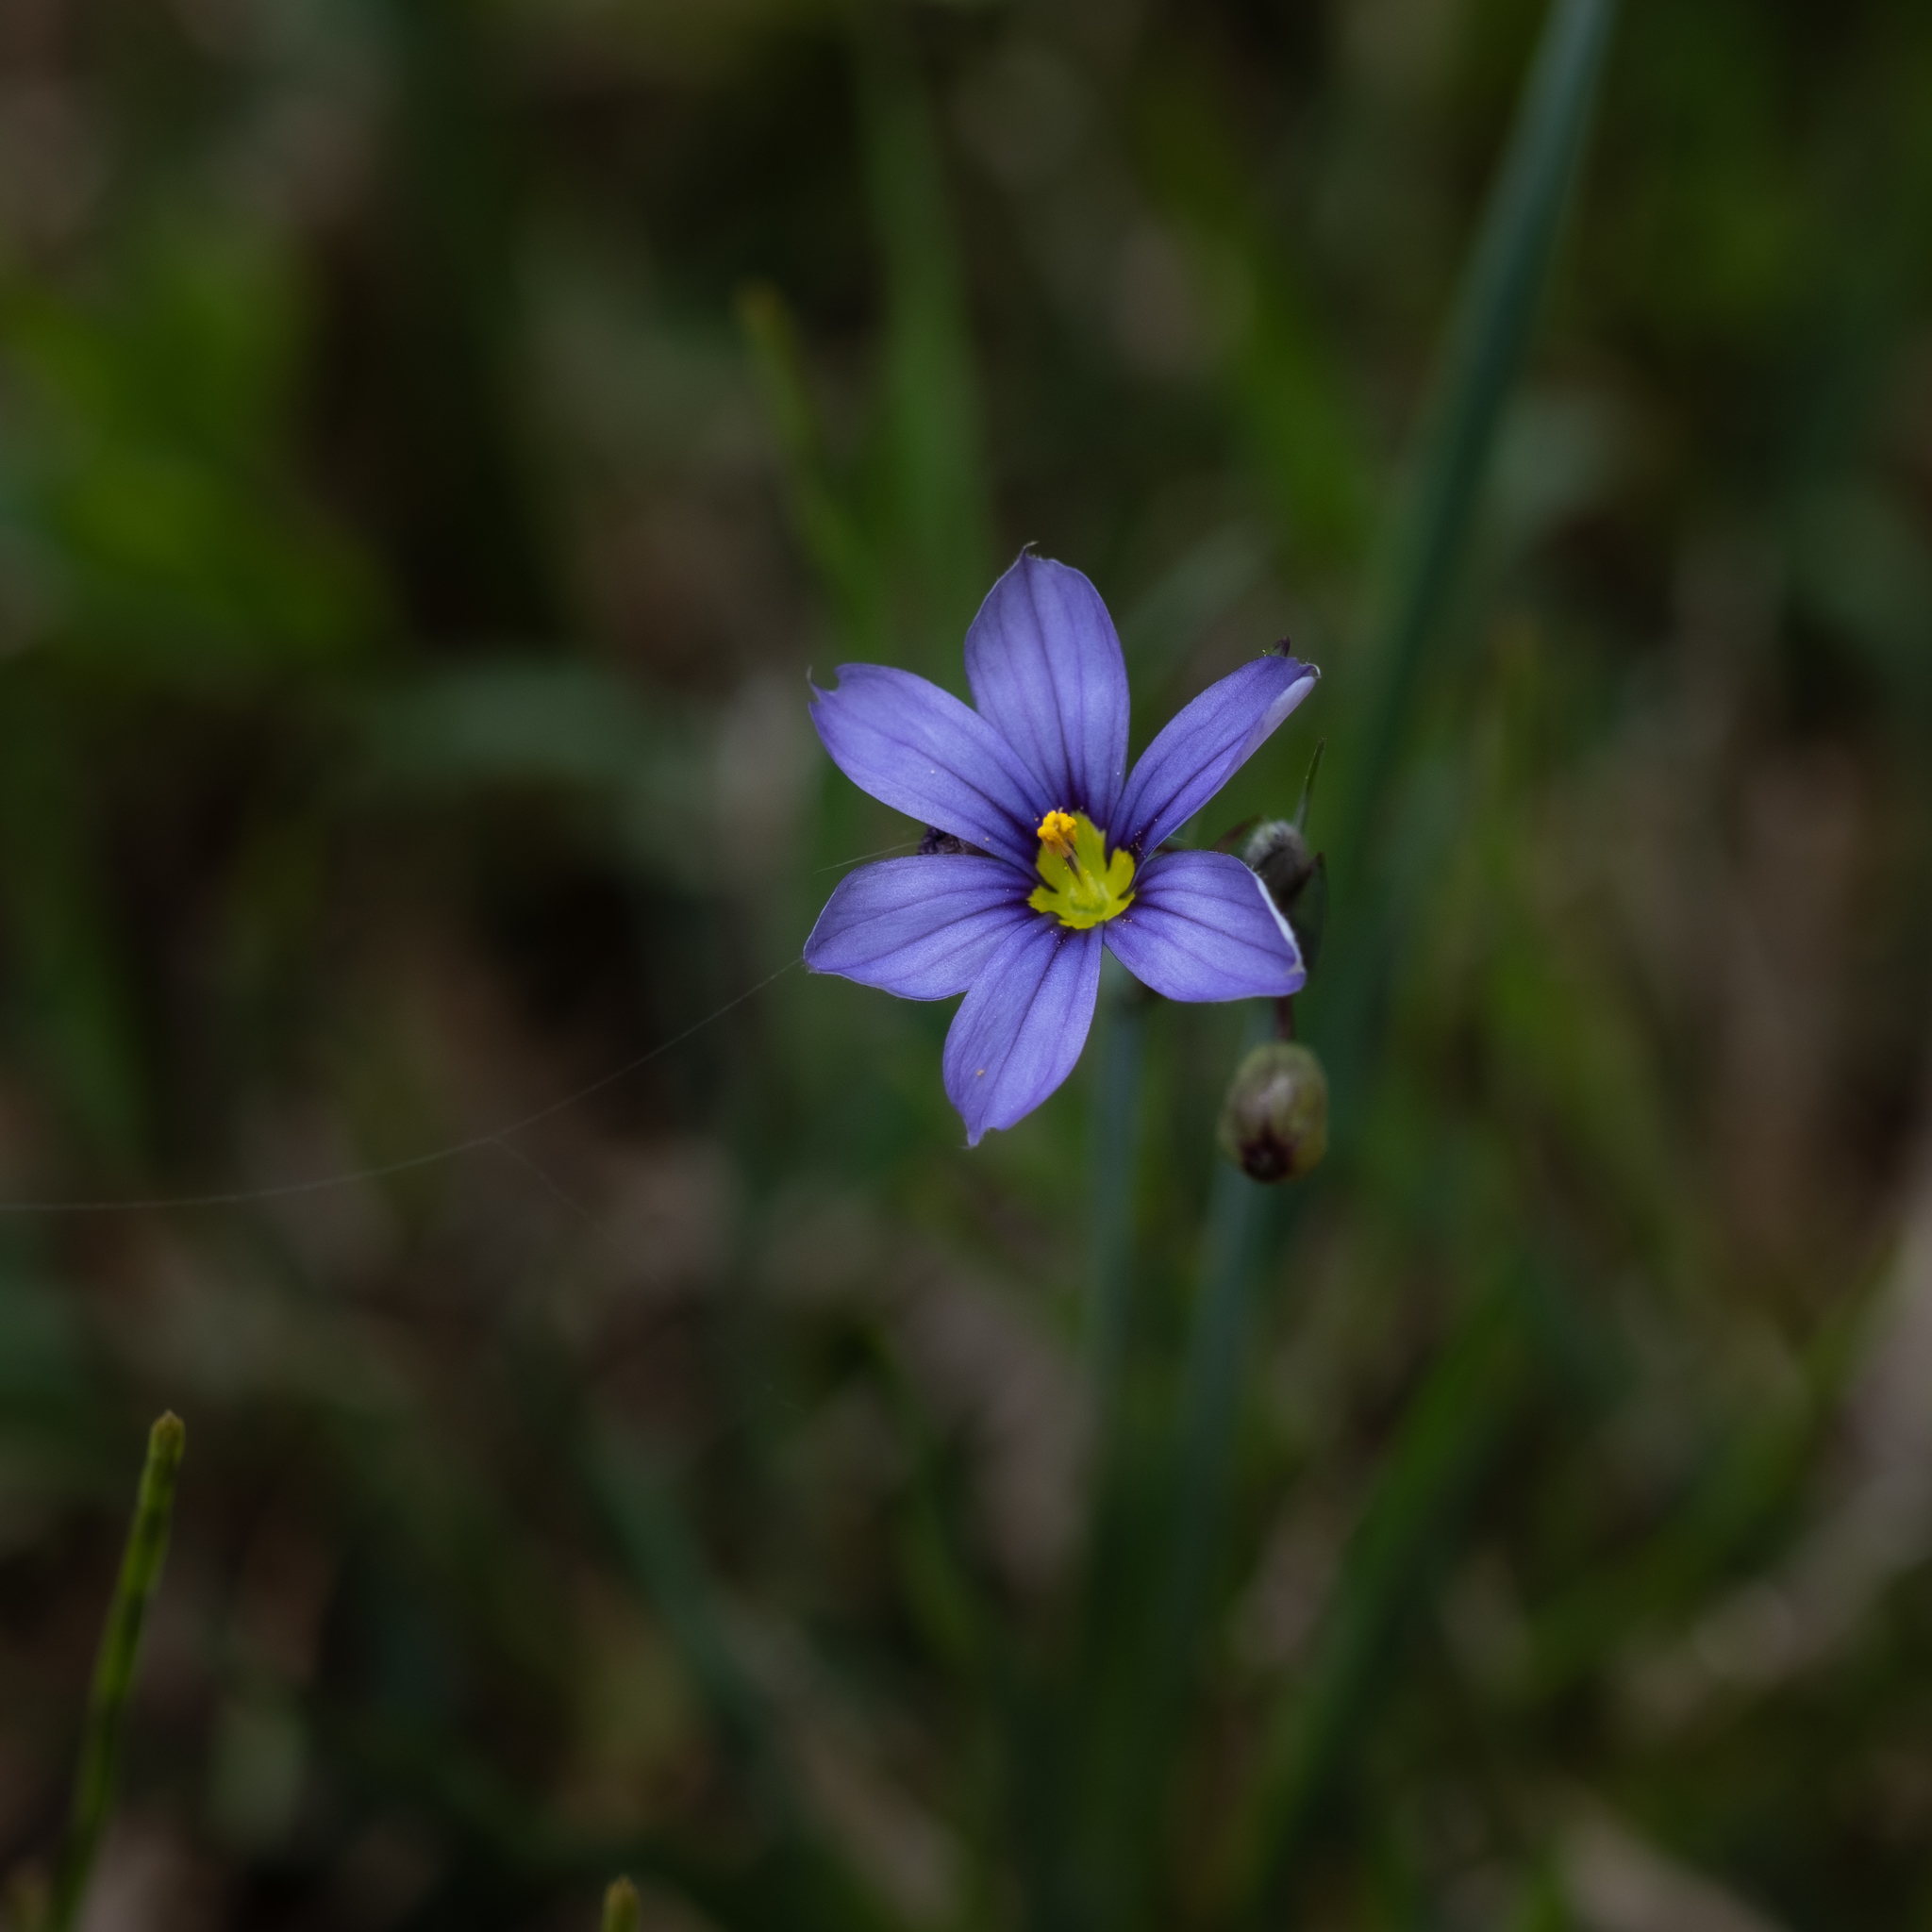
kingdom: Plantae
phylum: Tracheophyta
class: Liliopsida
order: Asparagales
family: Iridaceae
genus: Sisyrinchium
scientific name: Sisyrinchium montanum
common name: American blue-eyed-grass
